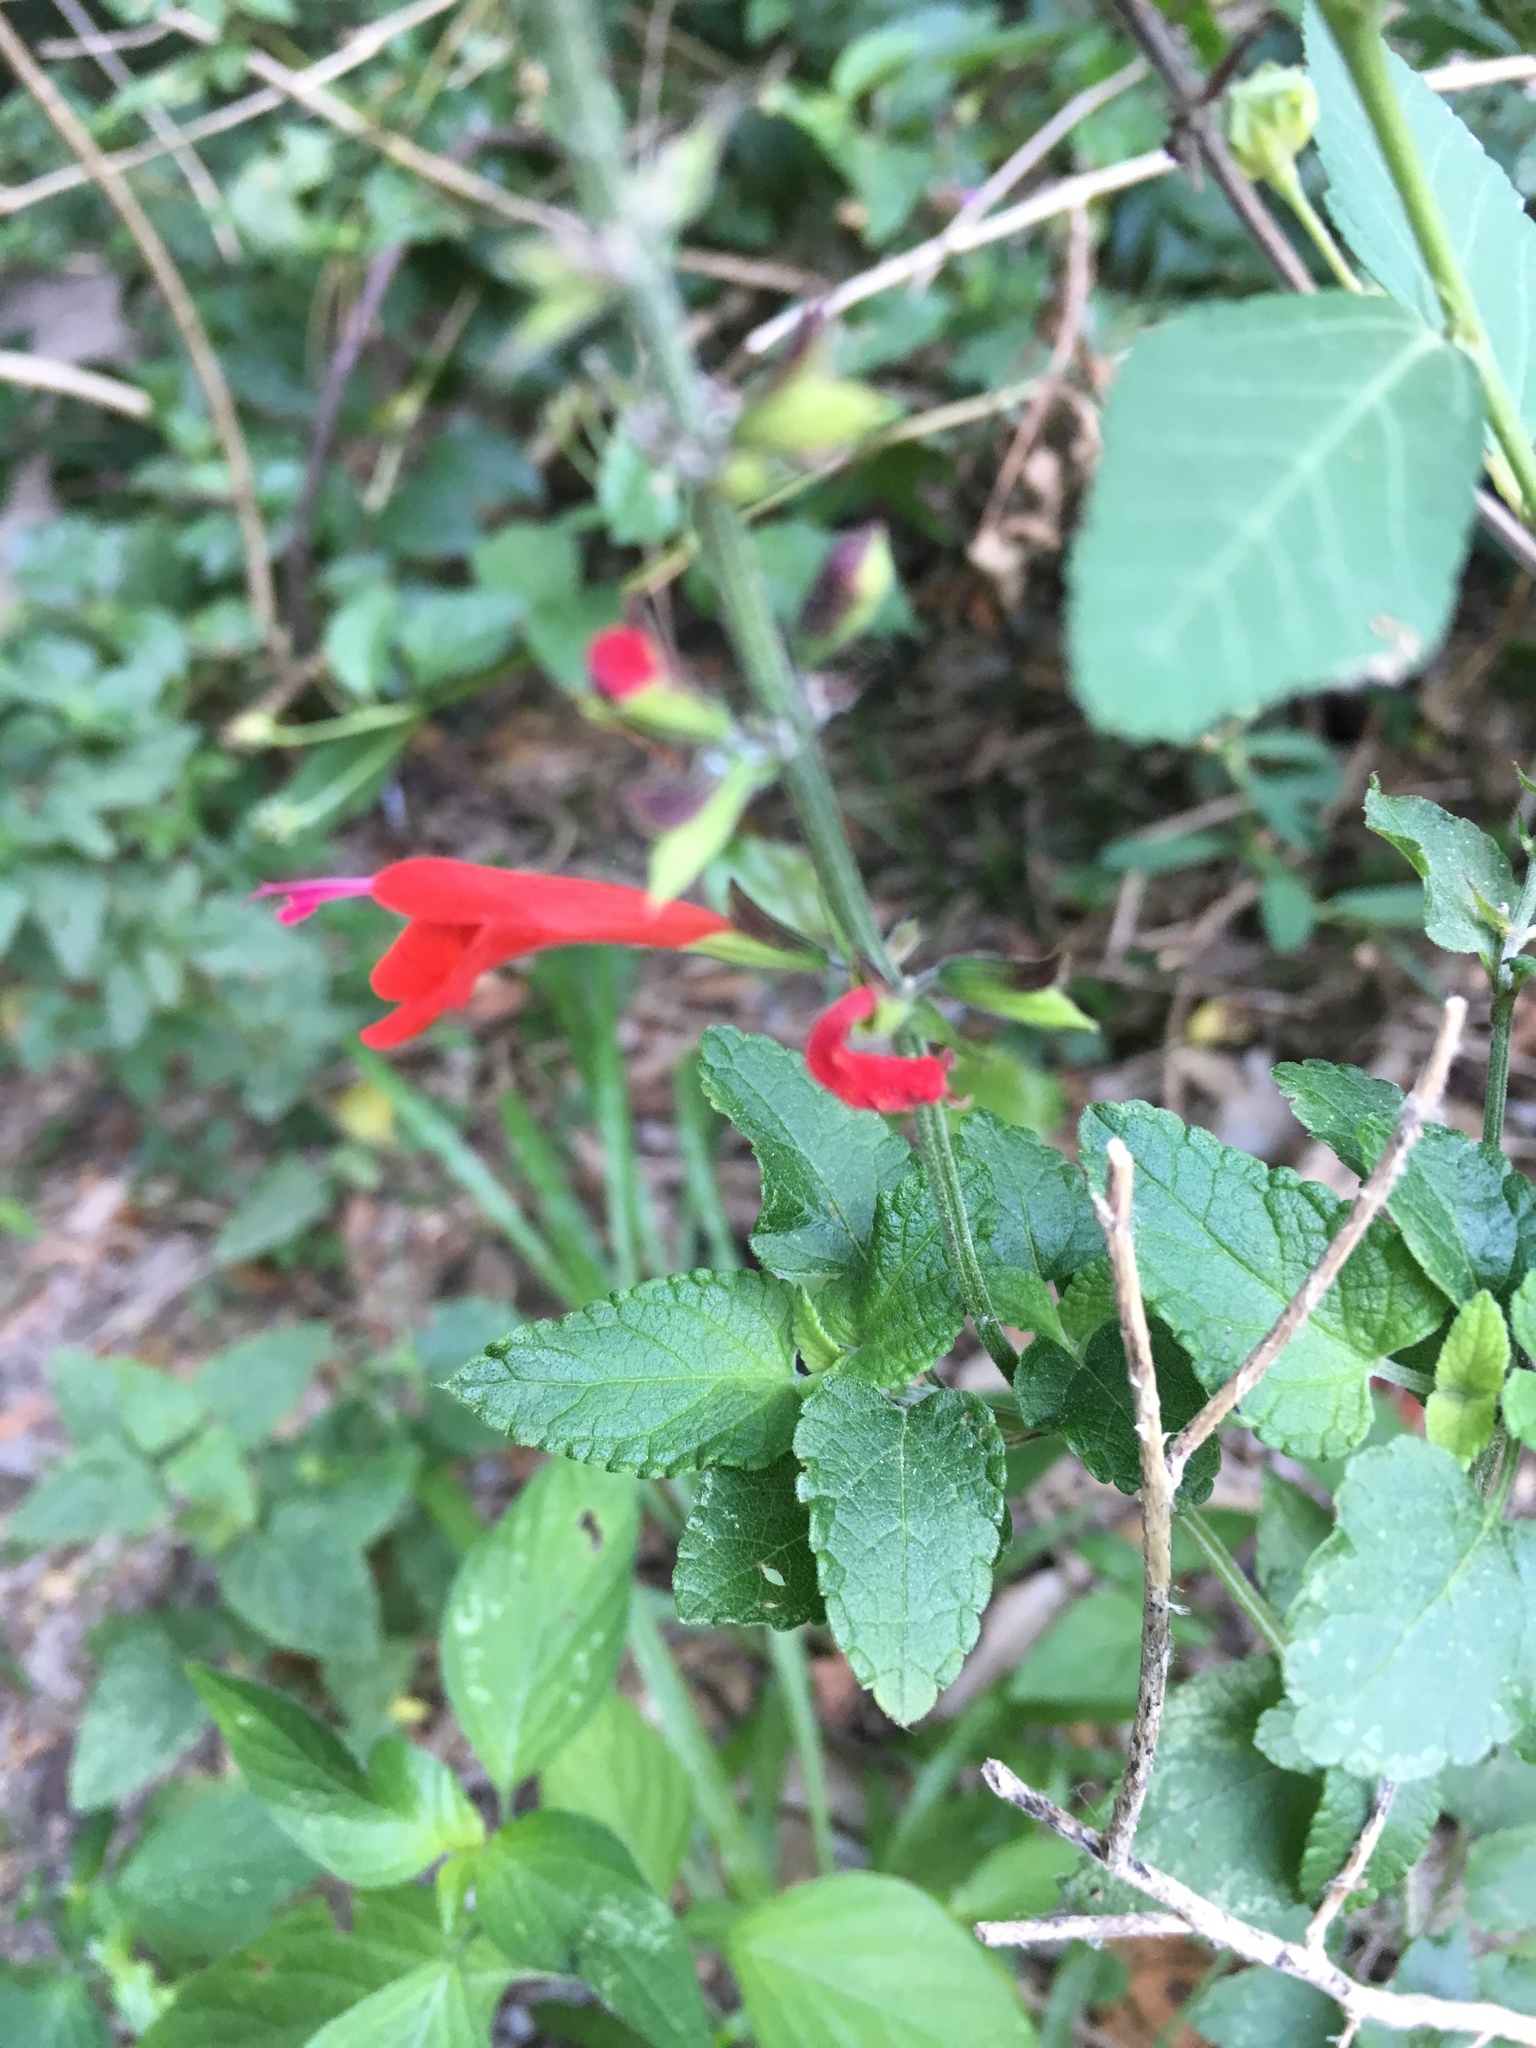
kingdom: Plantae
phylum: Tracheophyta
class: Magnoliopsida
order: Lamiales
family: Lamiaceae
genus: Salvia
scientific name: Salvia coccinea
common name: Blood sage
